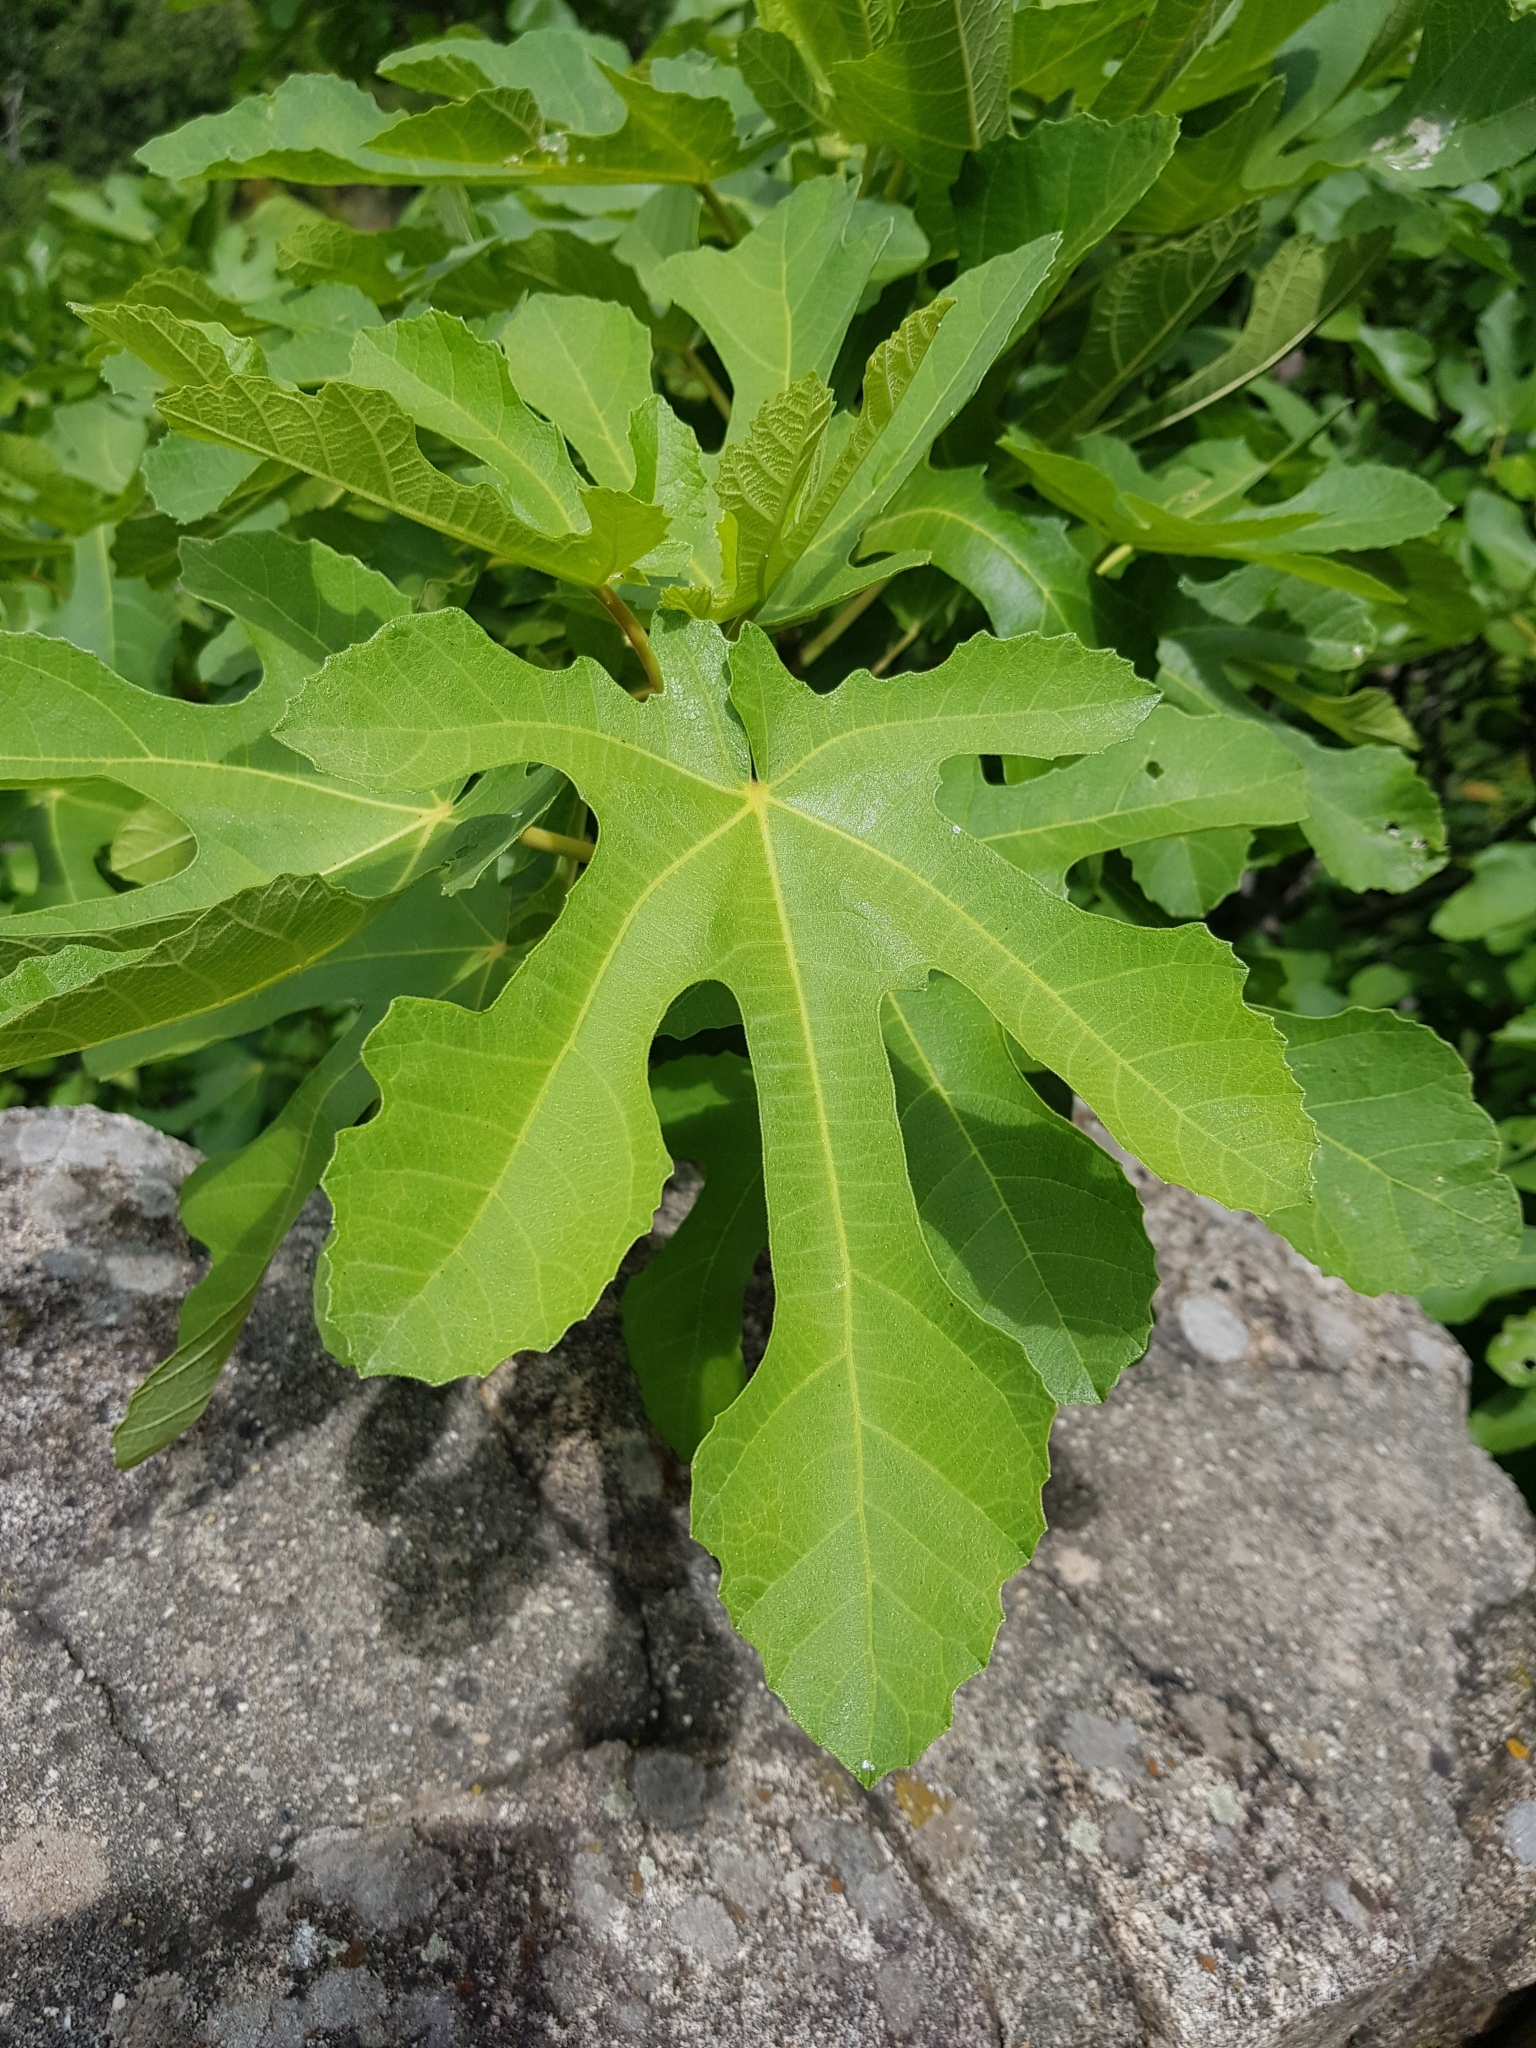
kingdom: Plantae
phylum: Tracheophyta
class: Magnoliopsida
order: Rosales
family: Moraceae
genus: Ficus
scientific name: Ficus carica
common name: Fig
